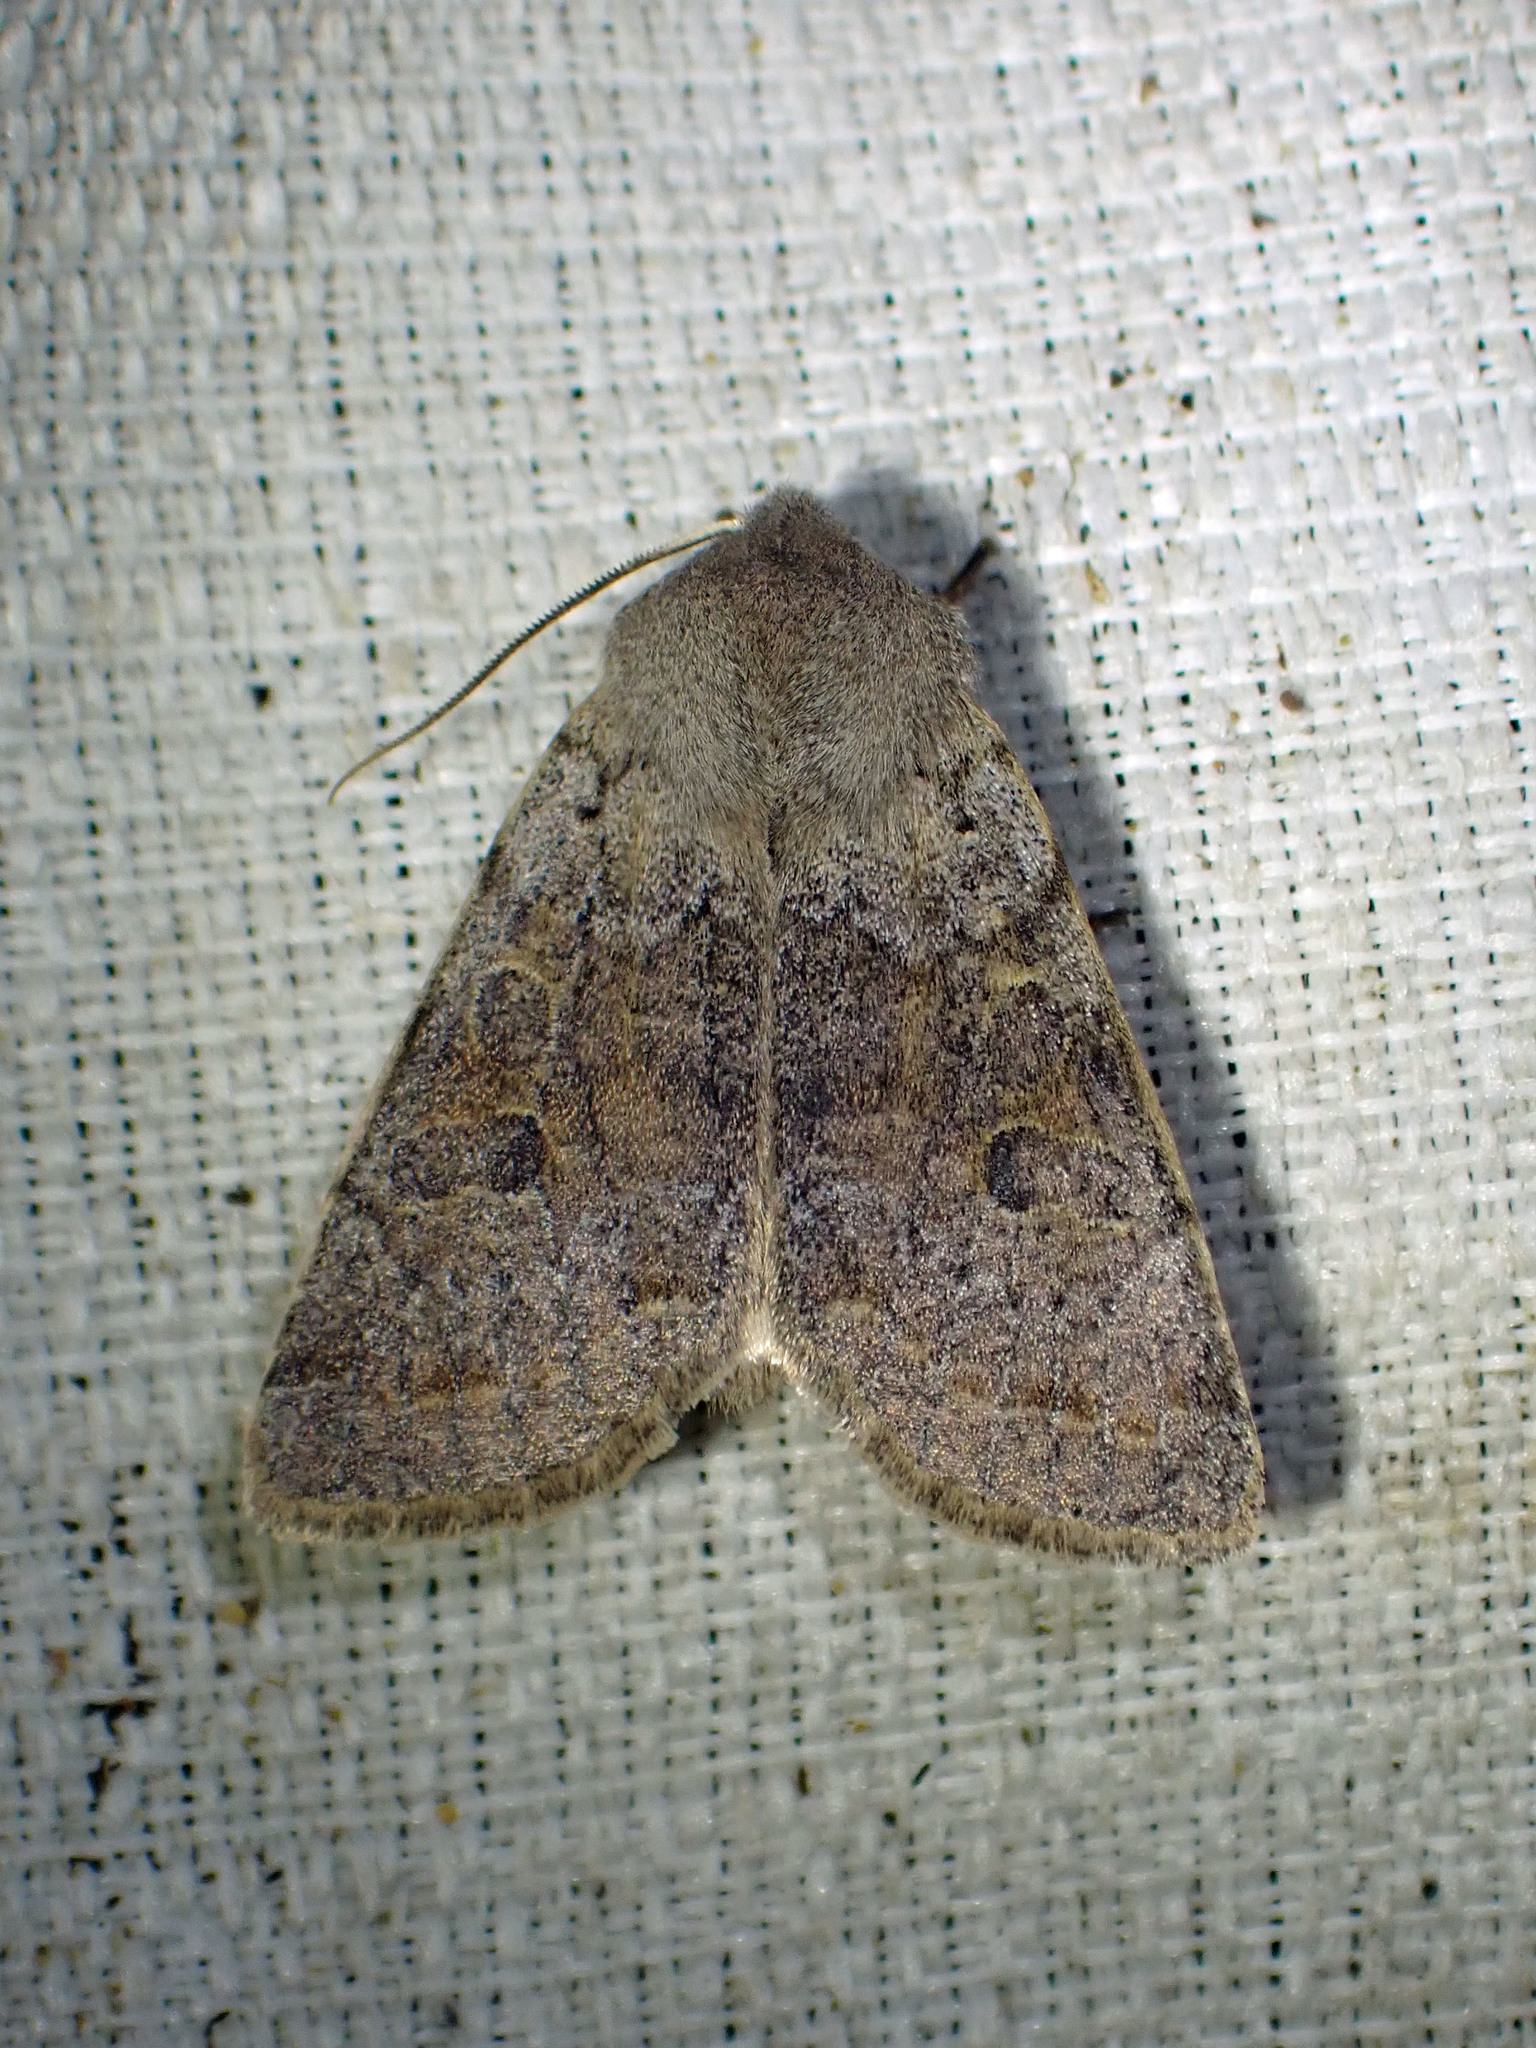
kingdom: Animalia
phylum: Arthropoda
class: Insecta
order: Lepidoptera
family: Noctuidae
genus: Orthosia
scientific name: Orthosia hibisci
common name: Green fruitworm
